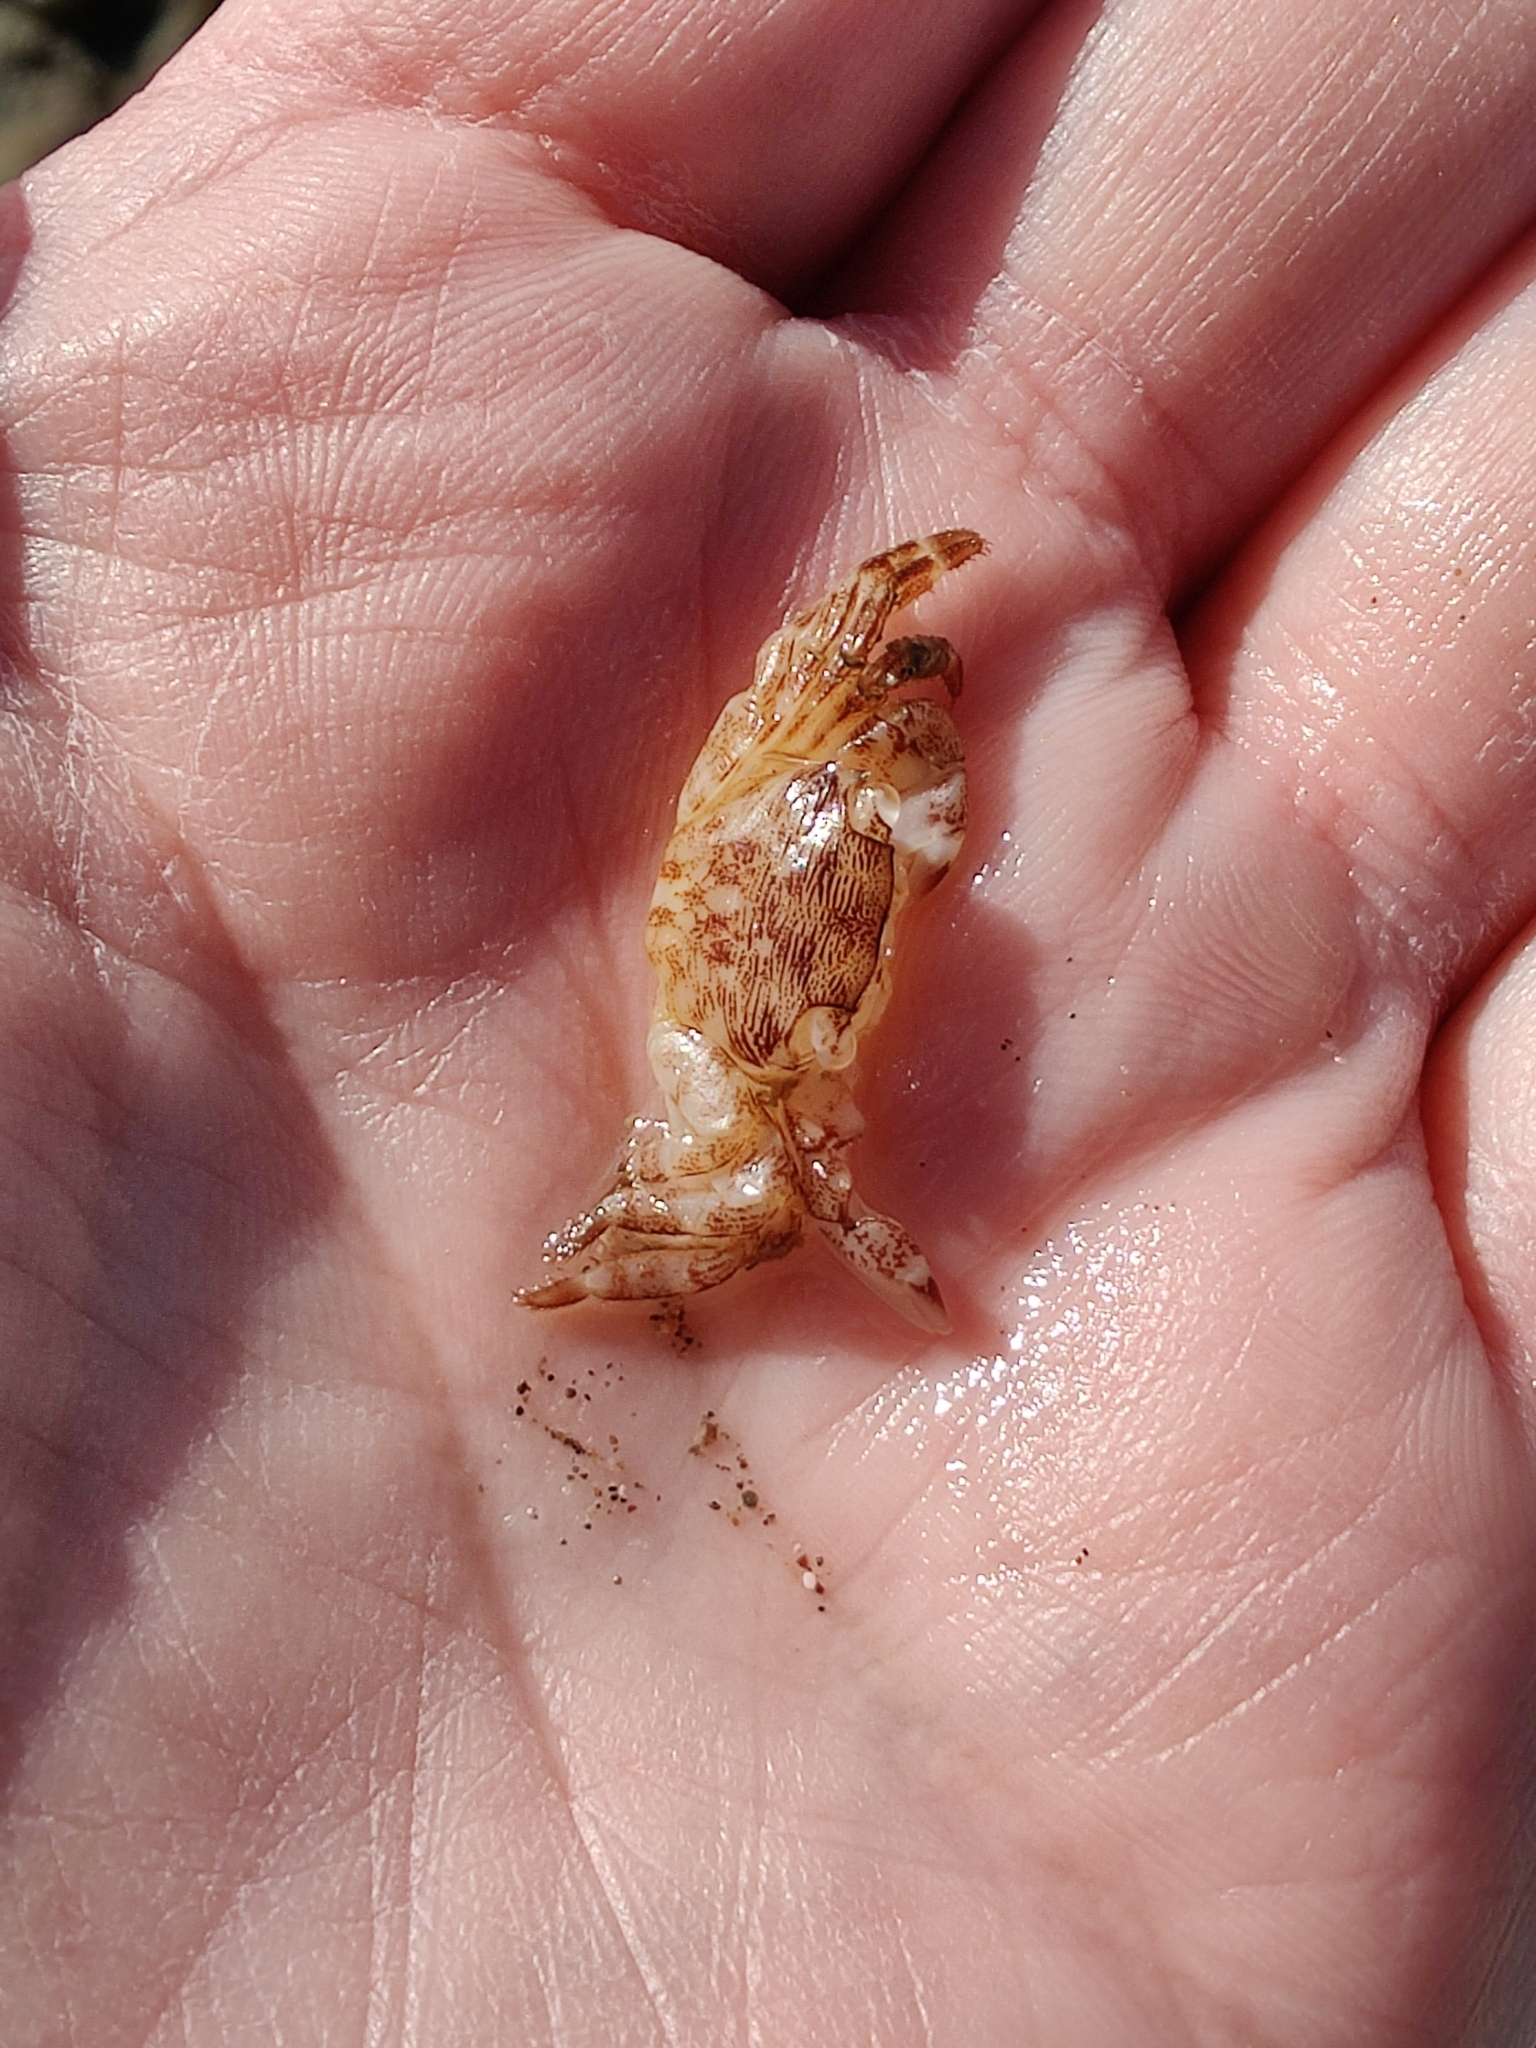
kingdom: Animalia
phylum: Arthropoda
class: Malacostraca
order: Decapoda
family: Grapsidae
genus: Pachygrapsus
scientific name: Pachygrapsus crassipes
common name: Striped shore crab
